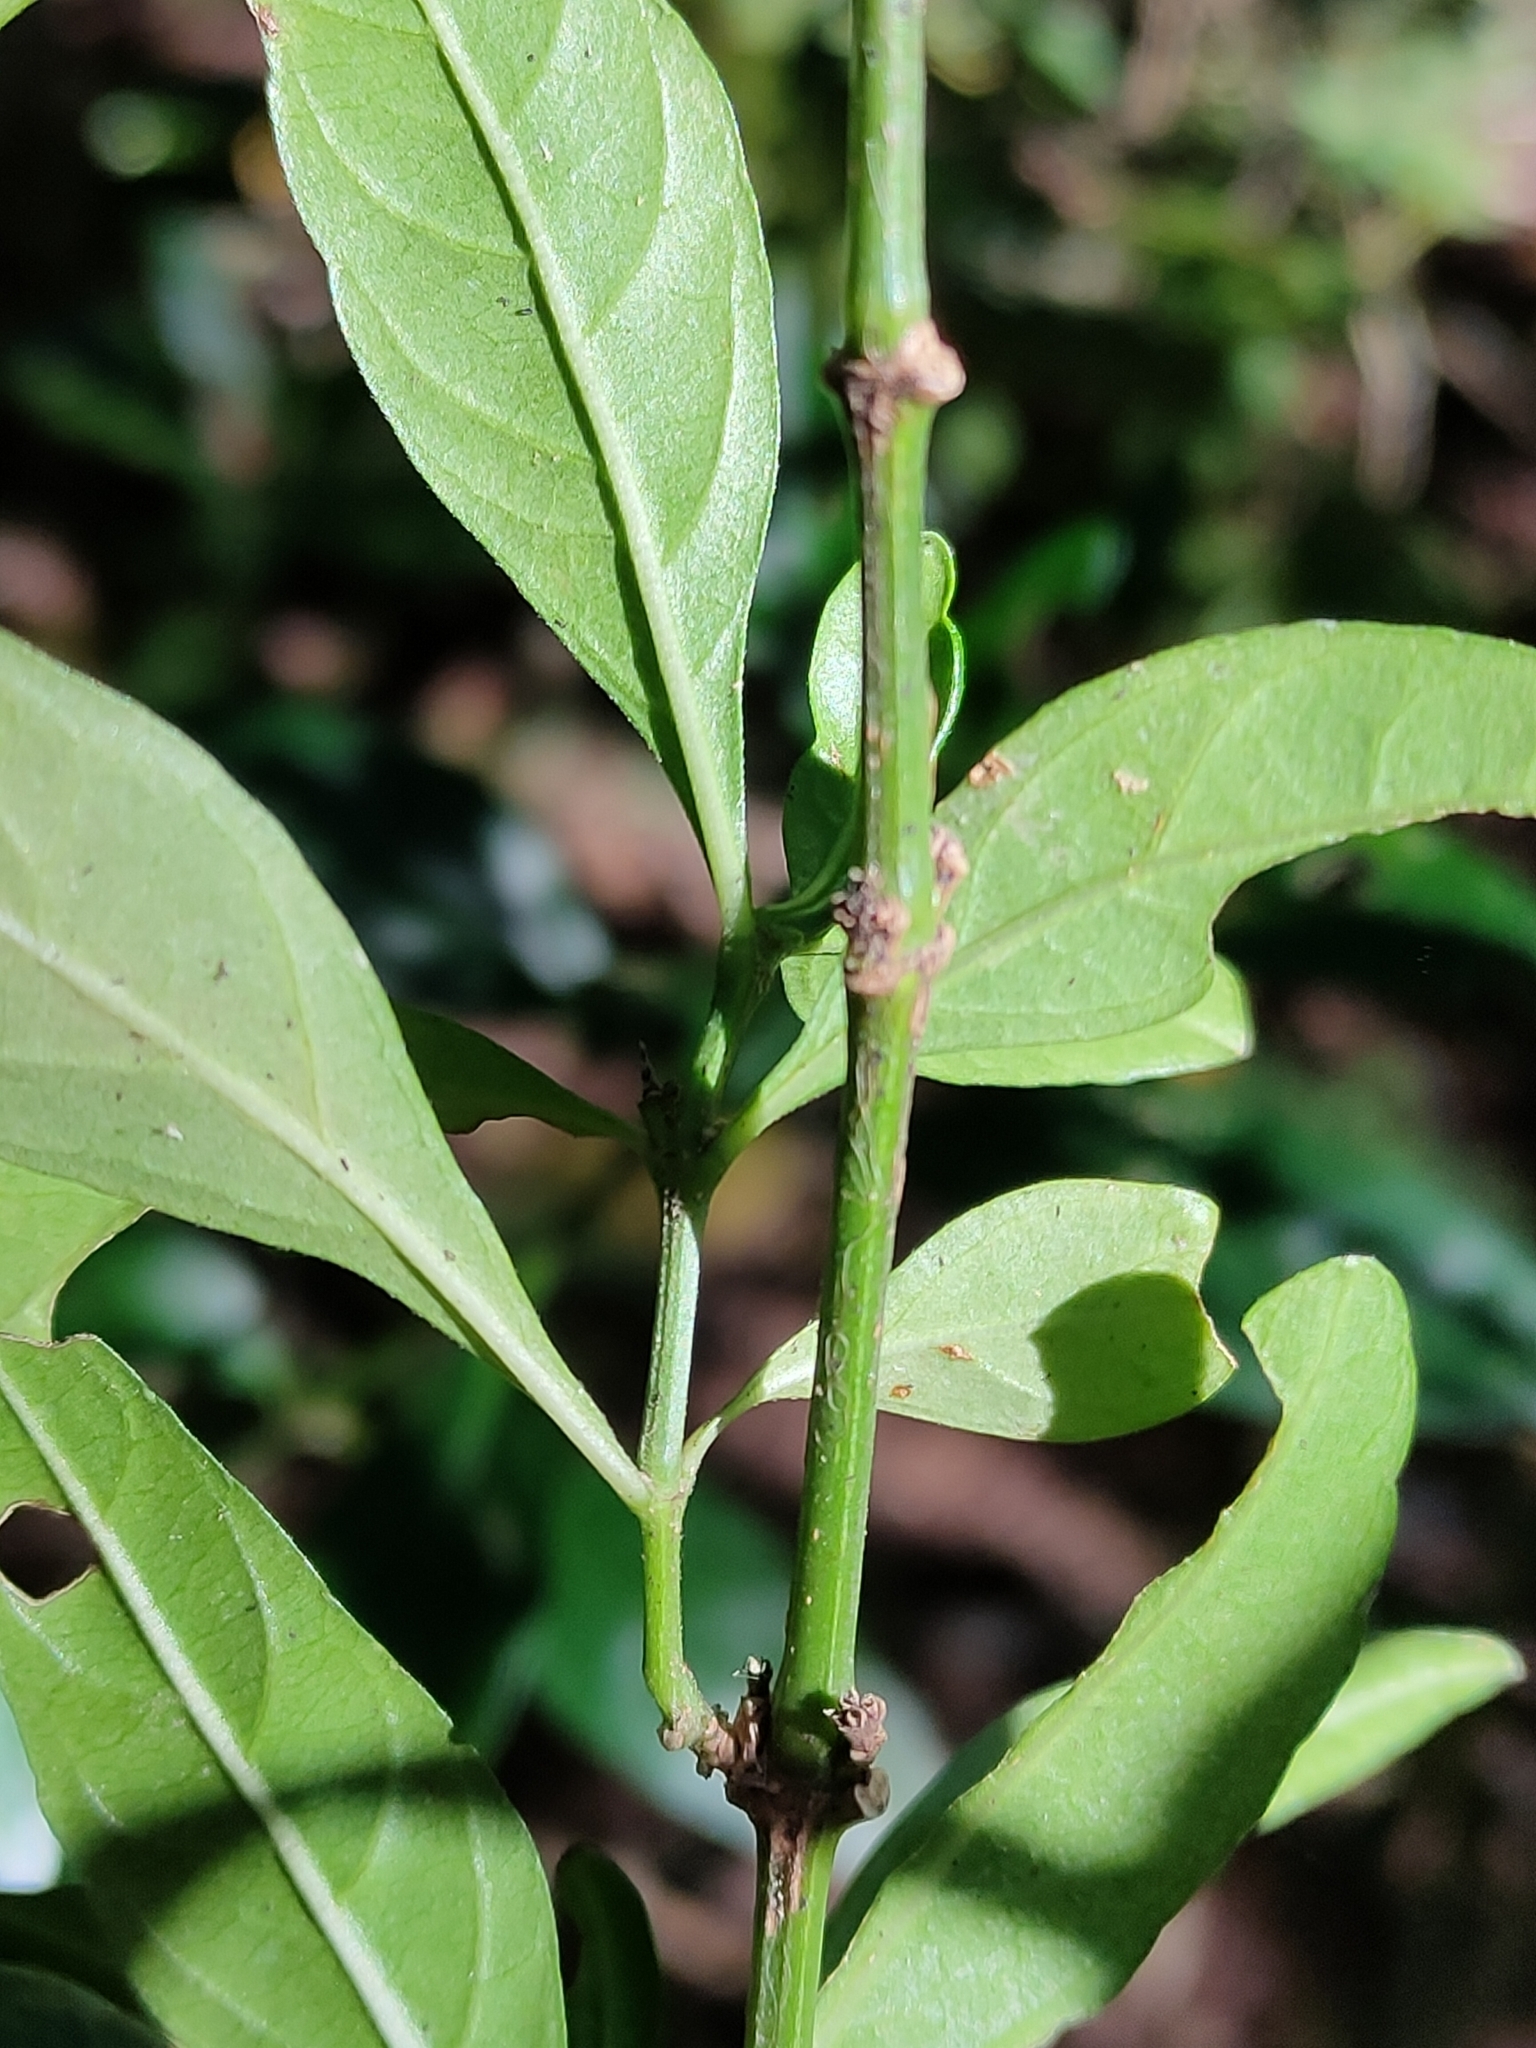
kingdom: Plantae
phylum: Tracheophyta
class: Magnoliopsida
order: Lamiales
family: Acanthaceae
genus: Justicia
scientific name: Justicia hygrophiloides
